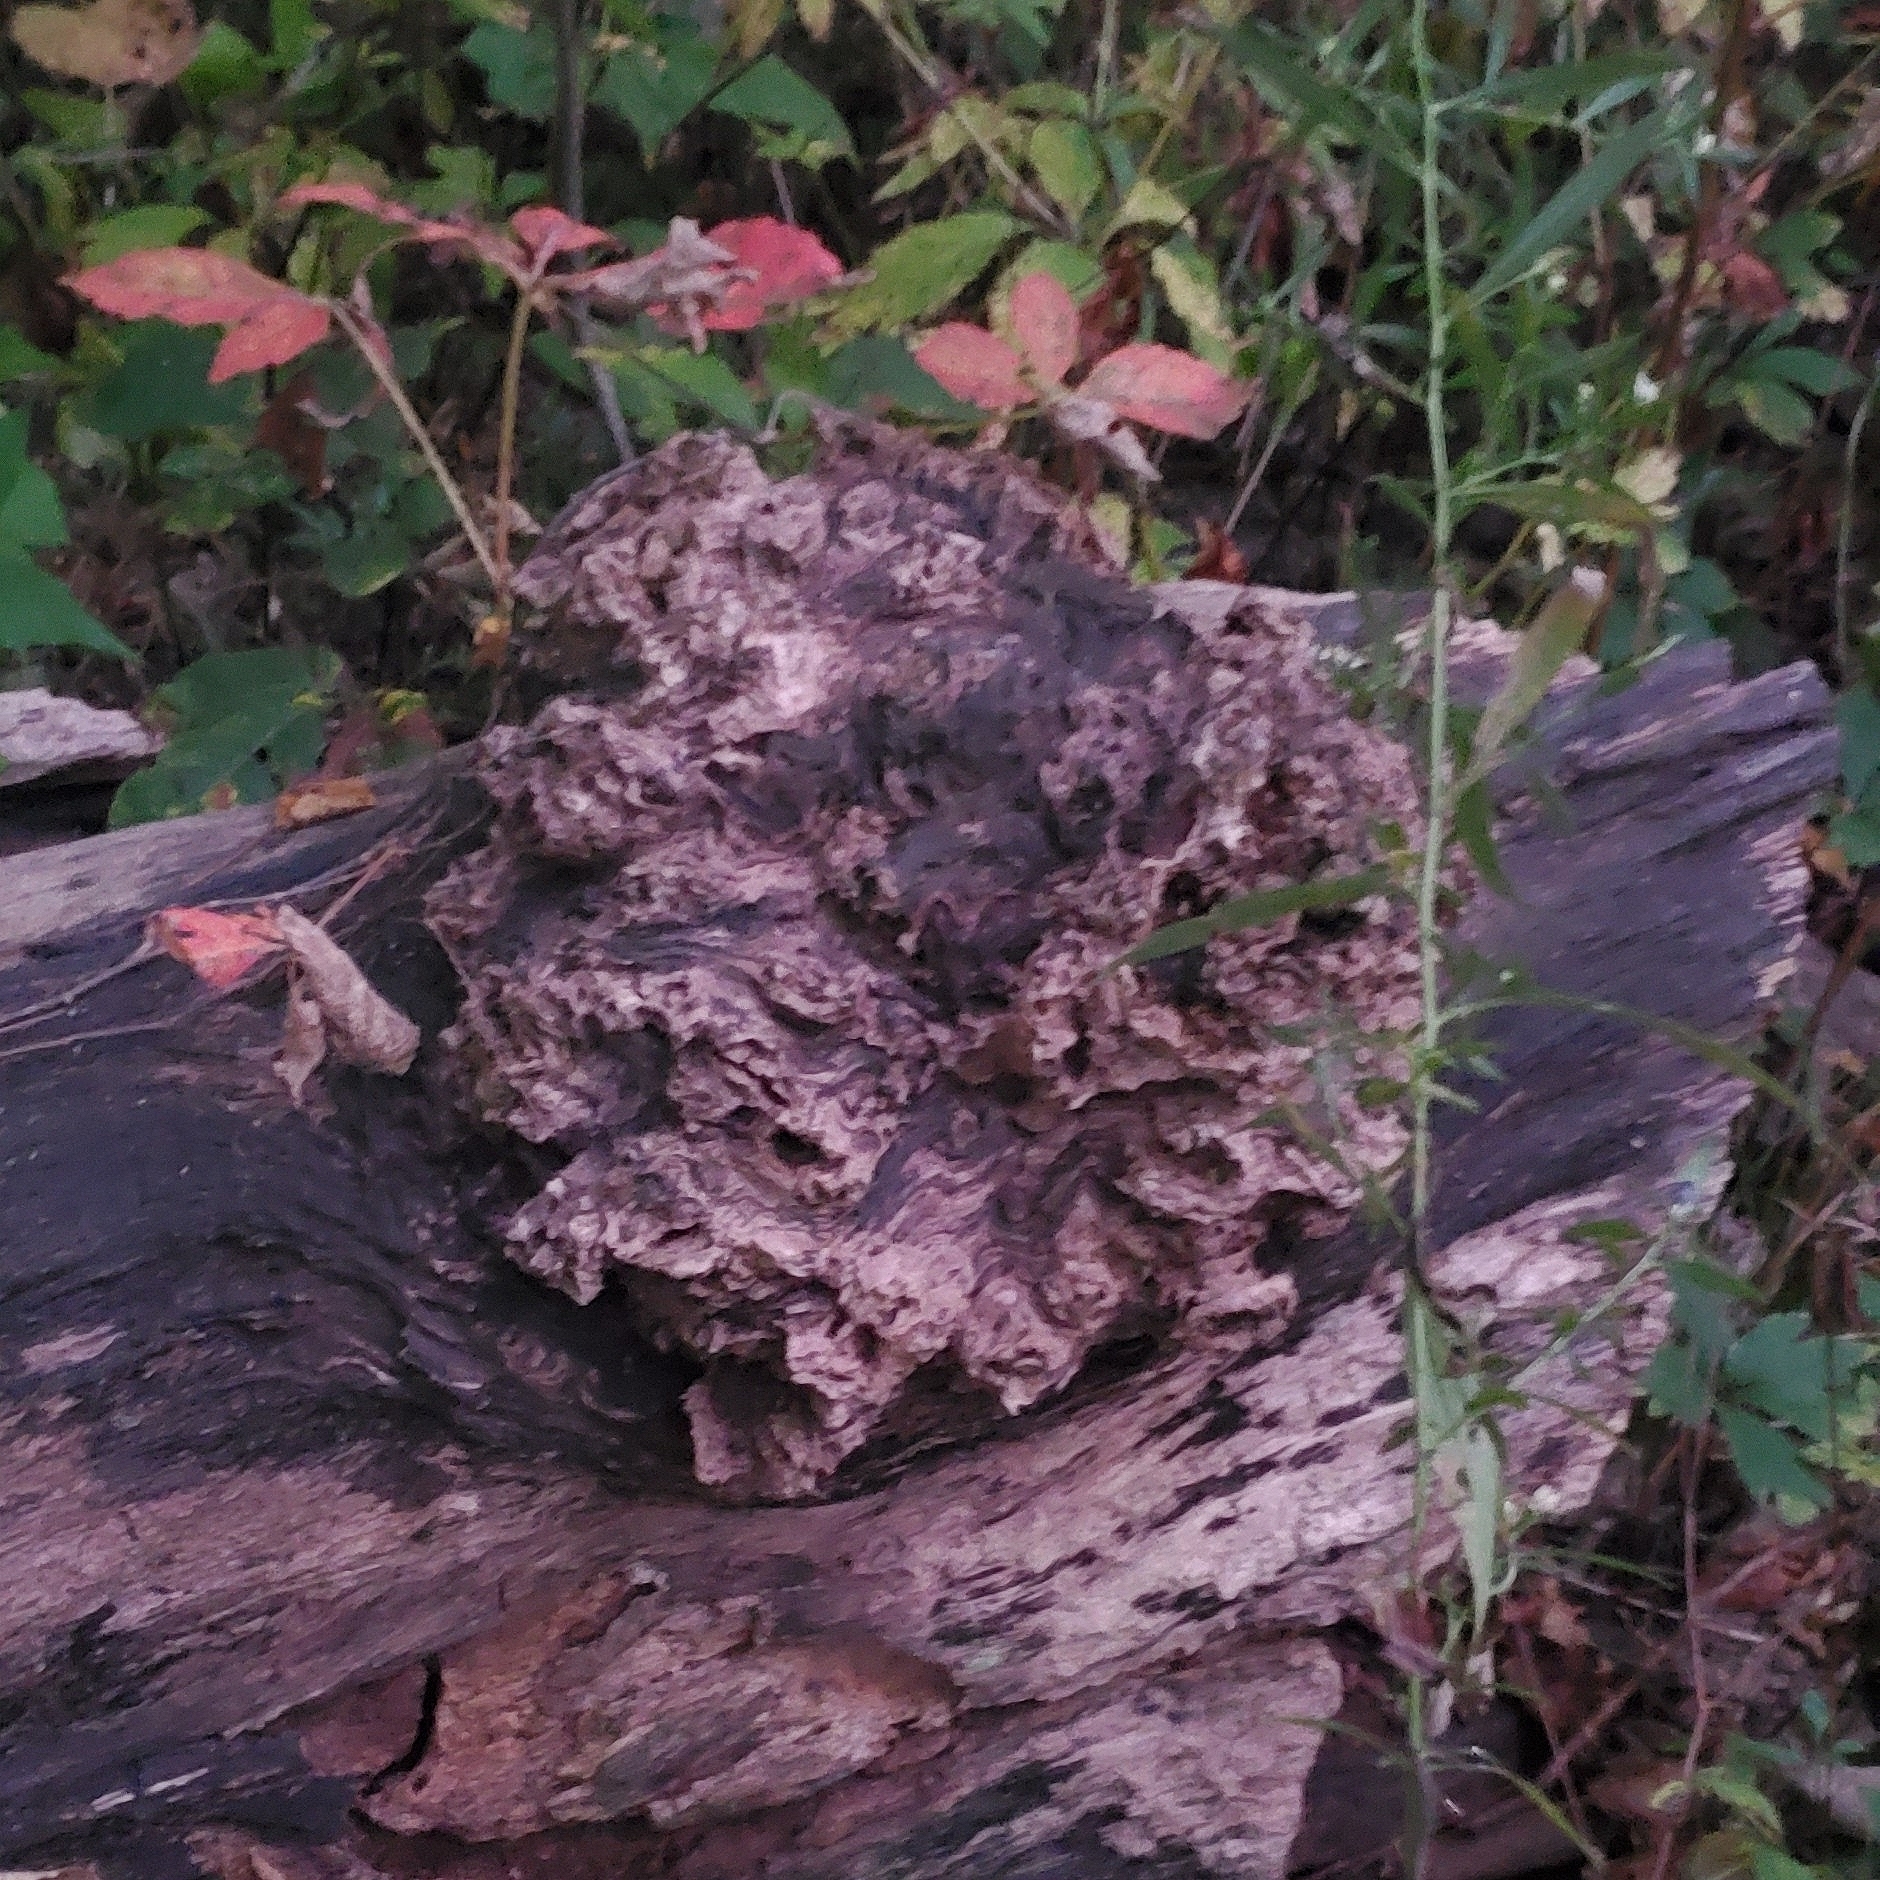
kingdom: Bacteria
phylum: Proteobacteria
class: Alphaproteobacteria
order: Rhizobiales
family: Rhizobiaceae
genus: Rhizobium
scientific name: Rhizobium Agrobacterium radiobacter
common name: Bacterial crown gall
